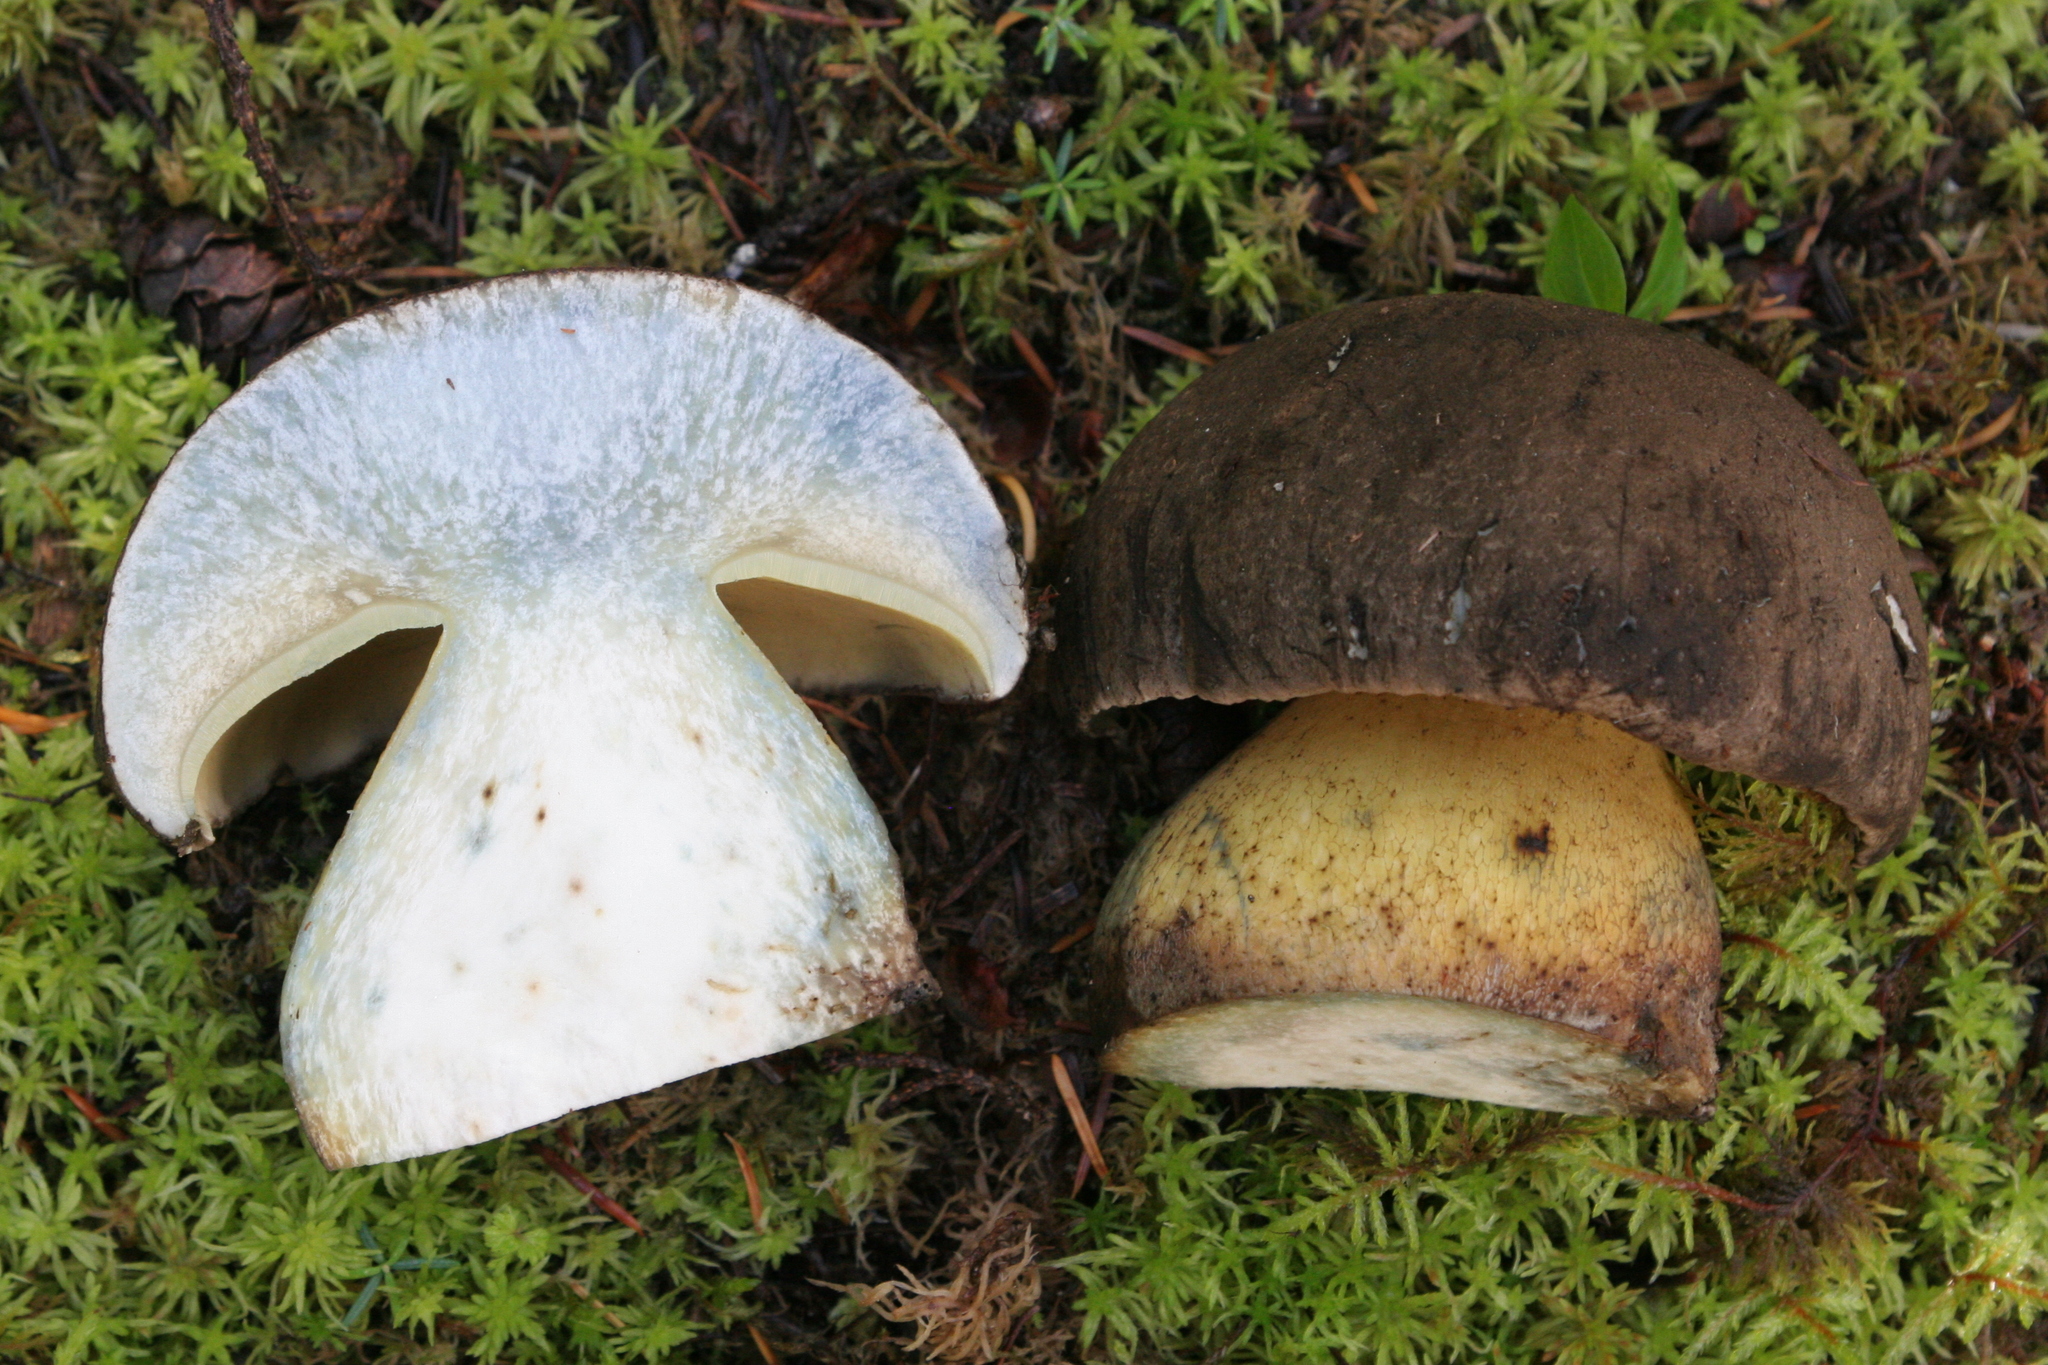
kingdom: Fungi
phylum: Basidiomycota
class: Agaricomycetes
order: Boletales
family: Boletaceae
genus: Caloboletus
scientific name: Caloboletus conifericola
